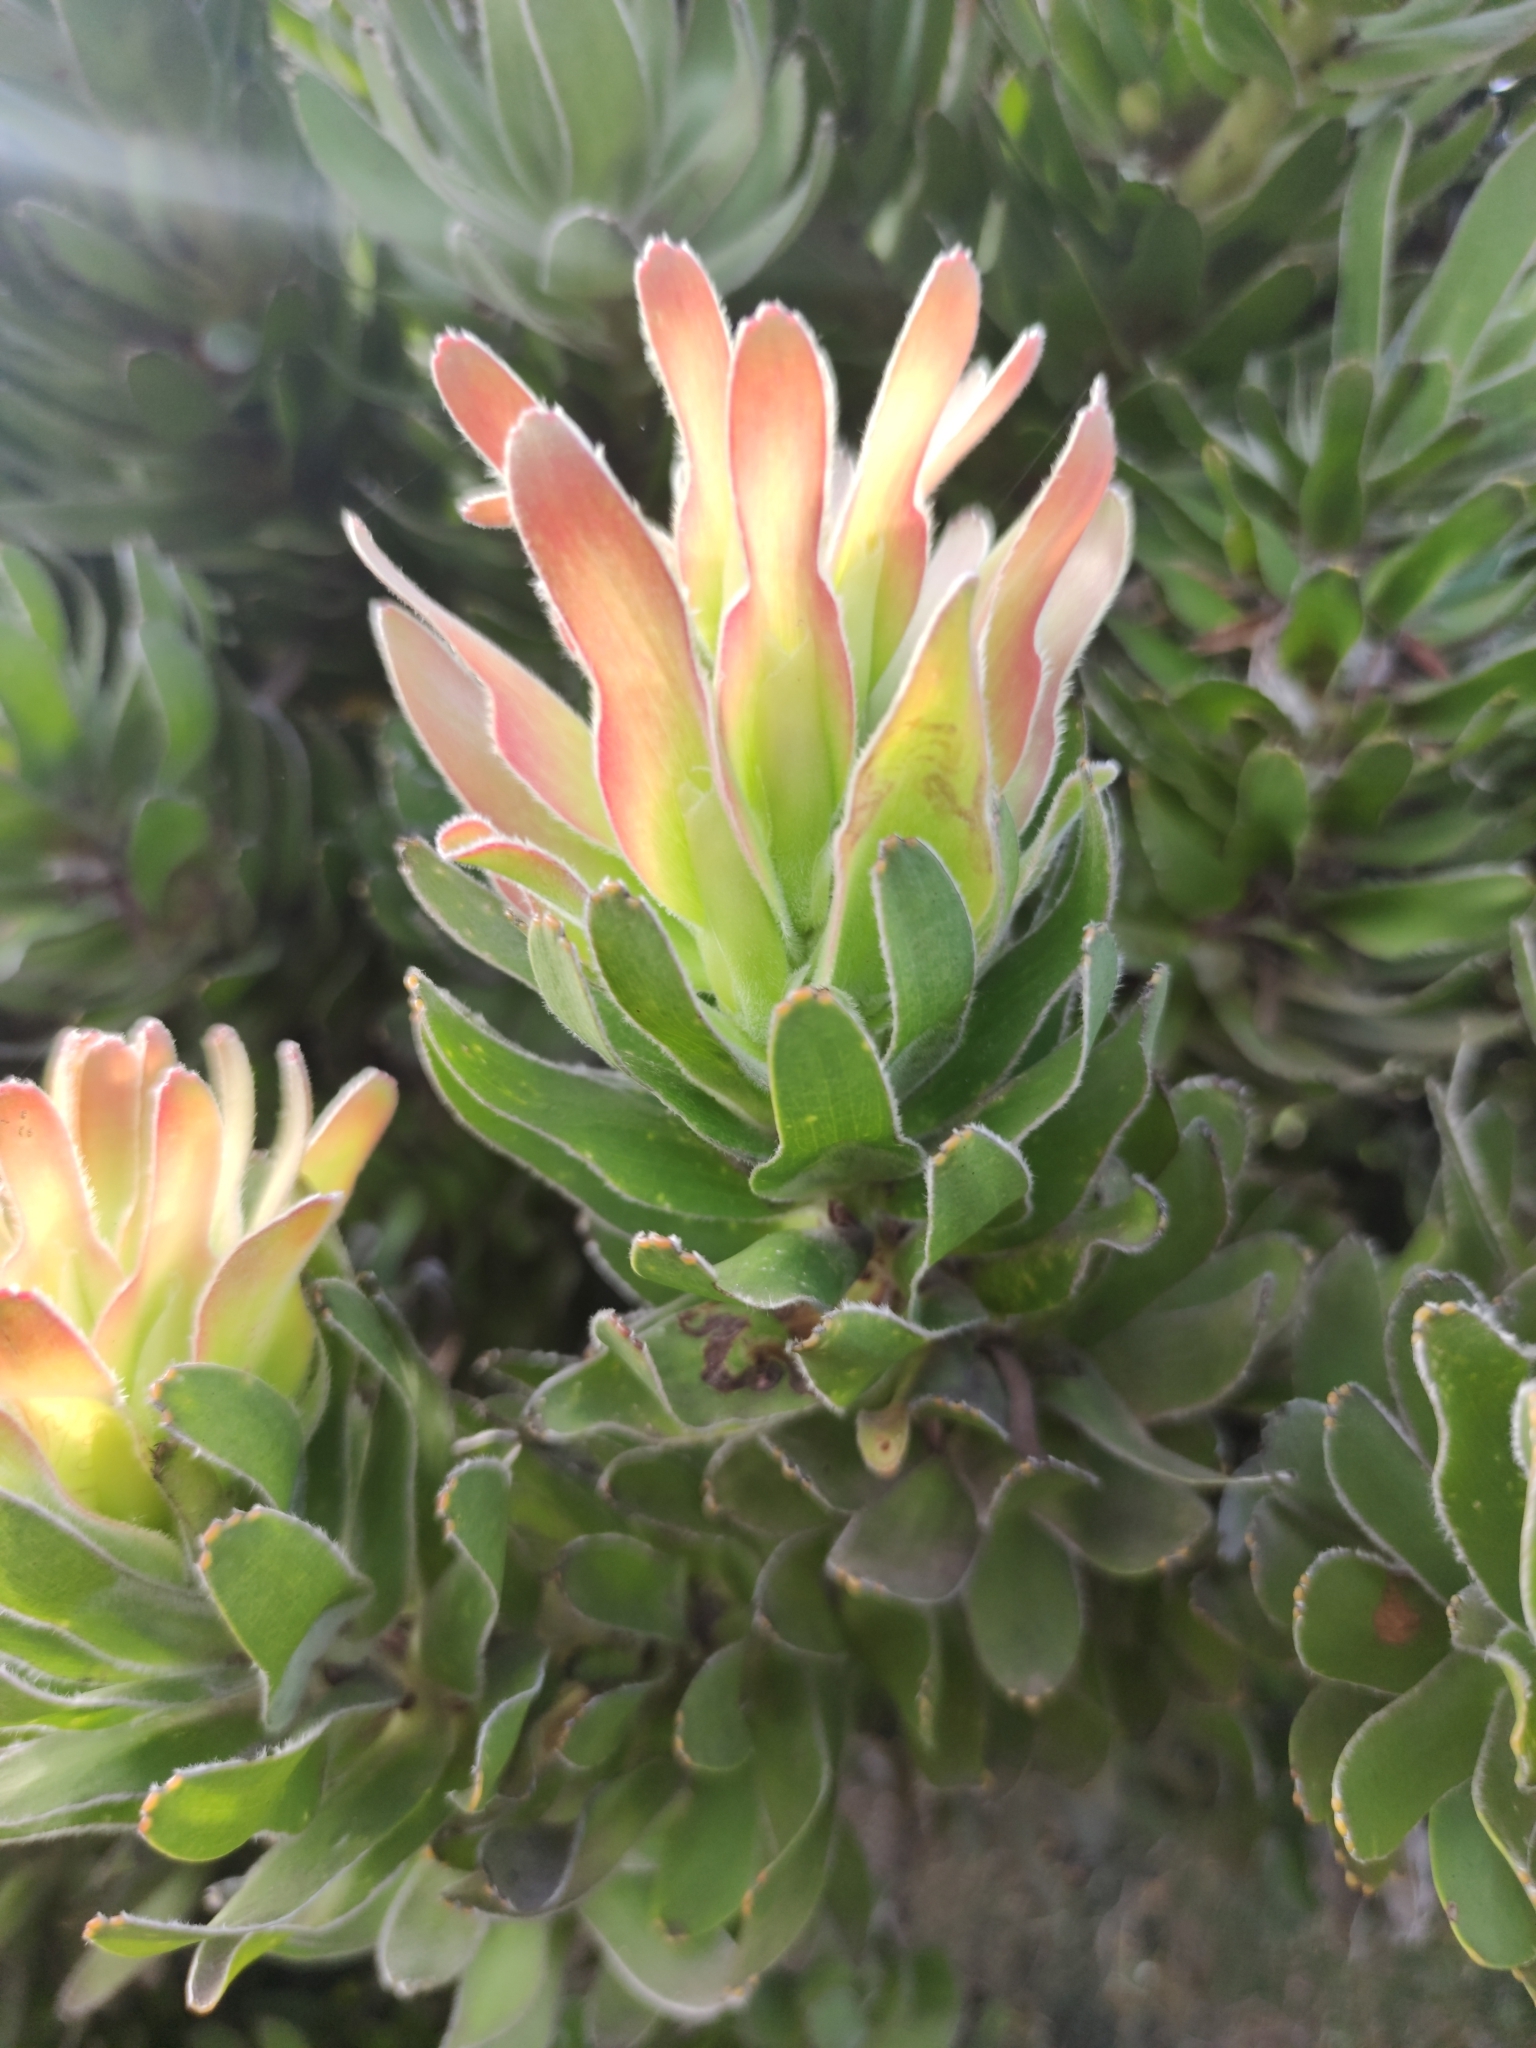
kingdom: Plantae
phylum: Tracheophyta
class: Magnoliopsida
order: Proteales
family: Proteaceae
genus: Mimetes
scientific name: Mimetes fimbriifolius
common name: Fringed bottlebrush
